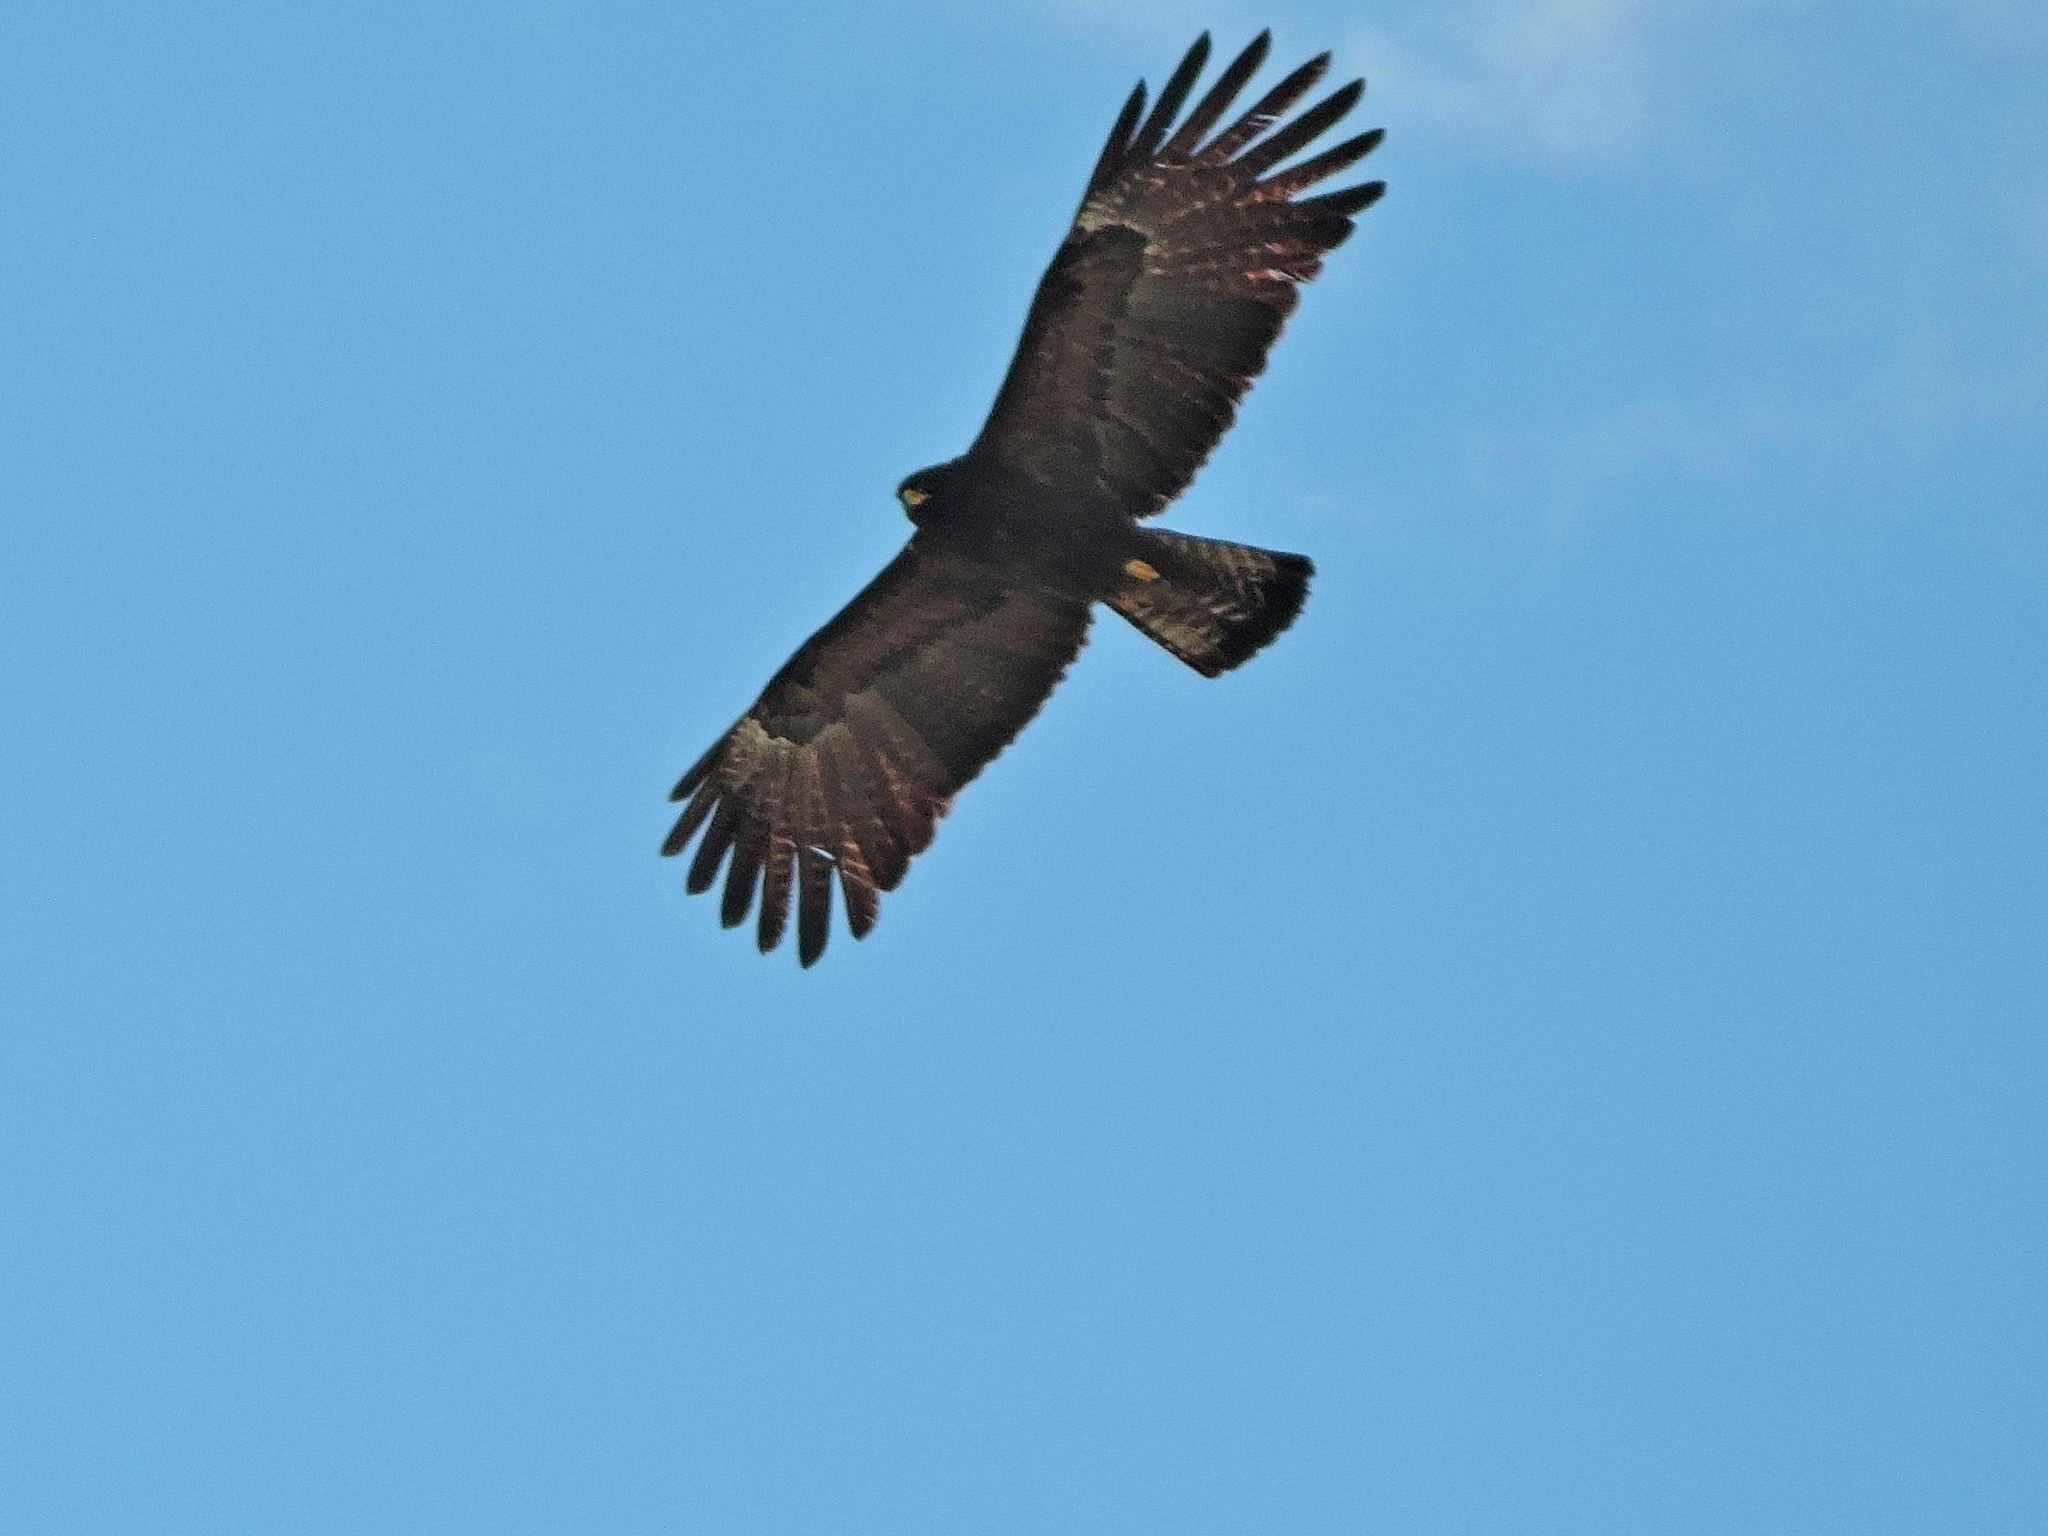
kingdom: Animalia
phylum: Chordata
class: Aves
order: Accipitriformes
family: Accipitridae
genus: Ictinaetus
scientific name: Ictinaetus malayensis
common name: Black eagle
